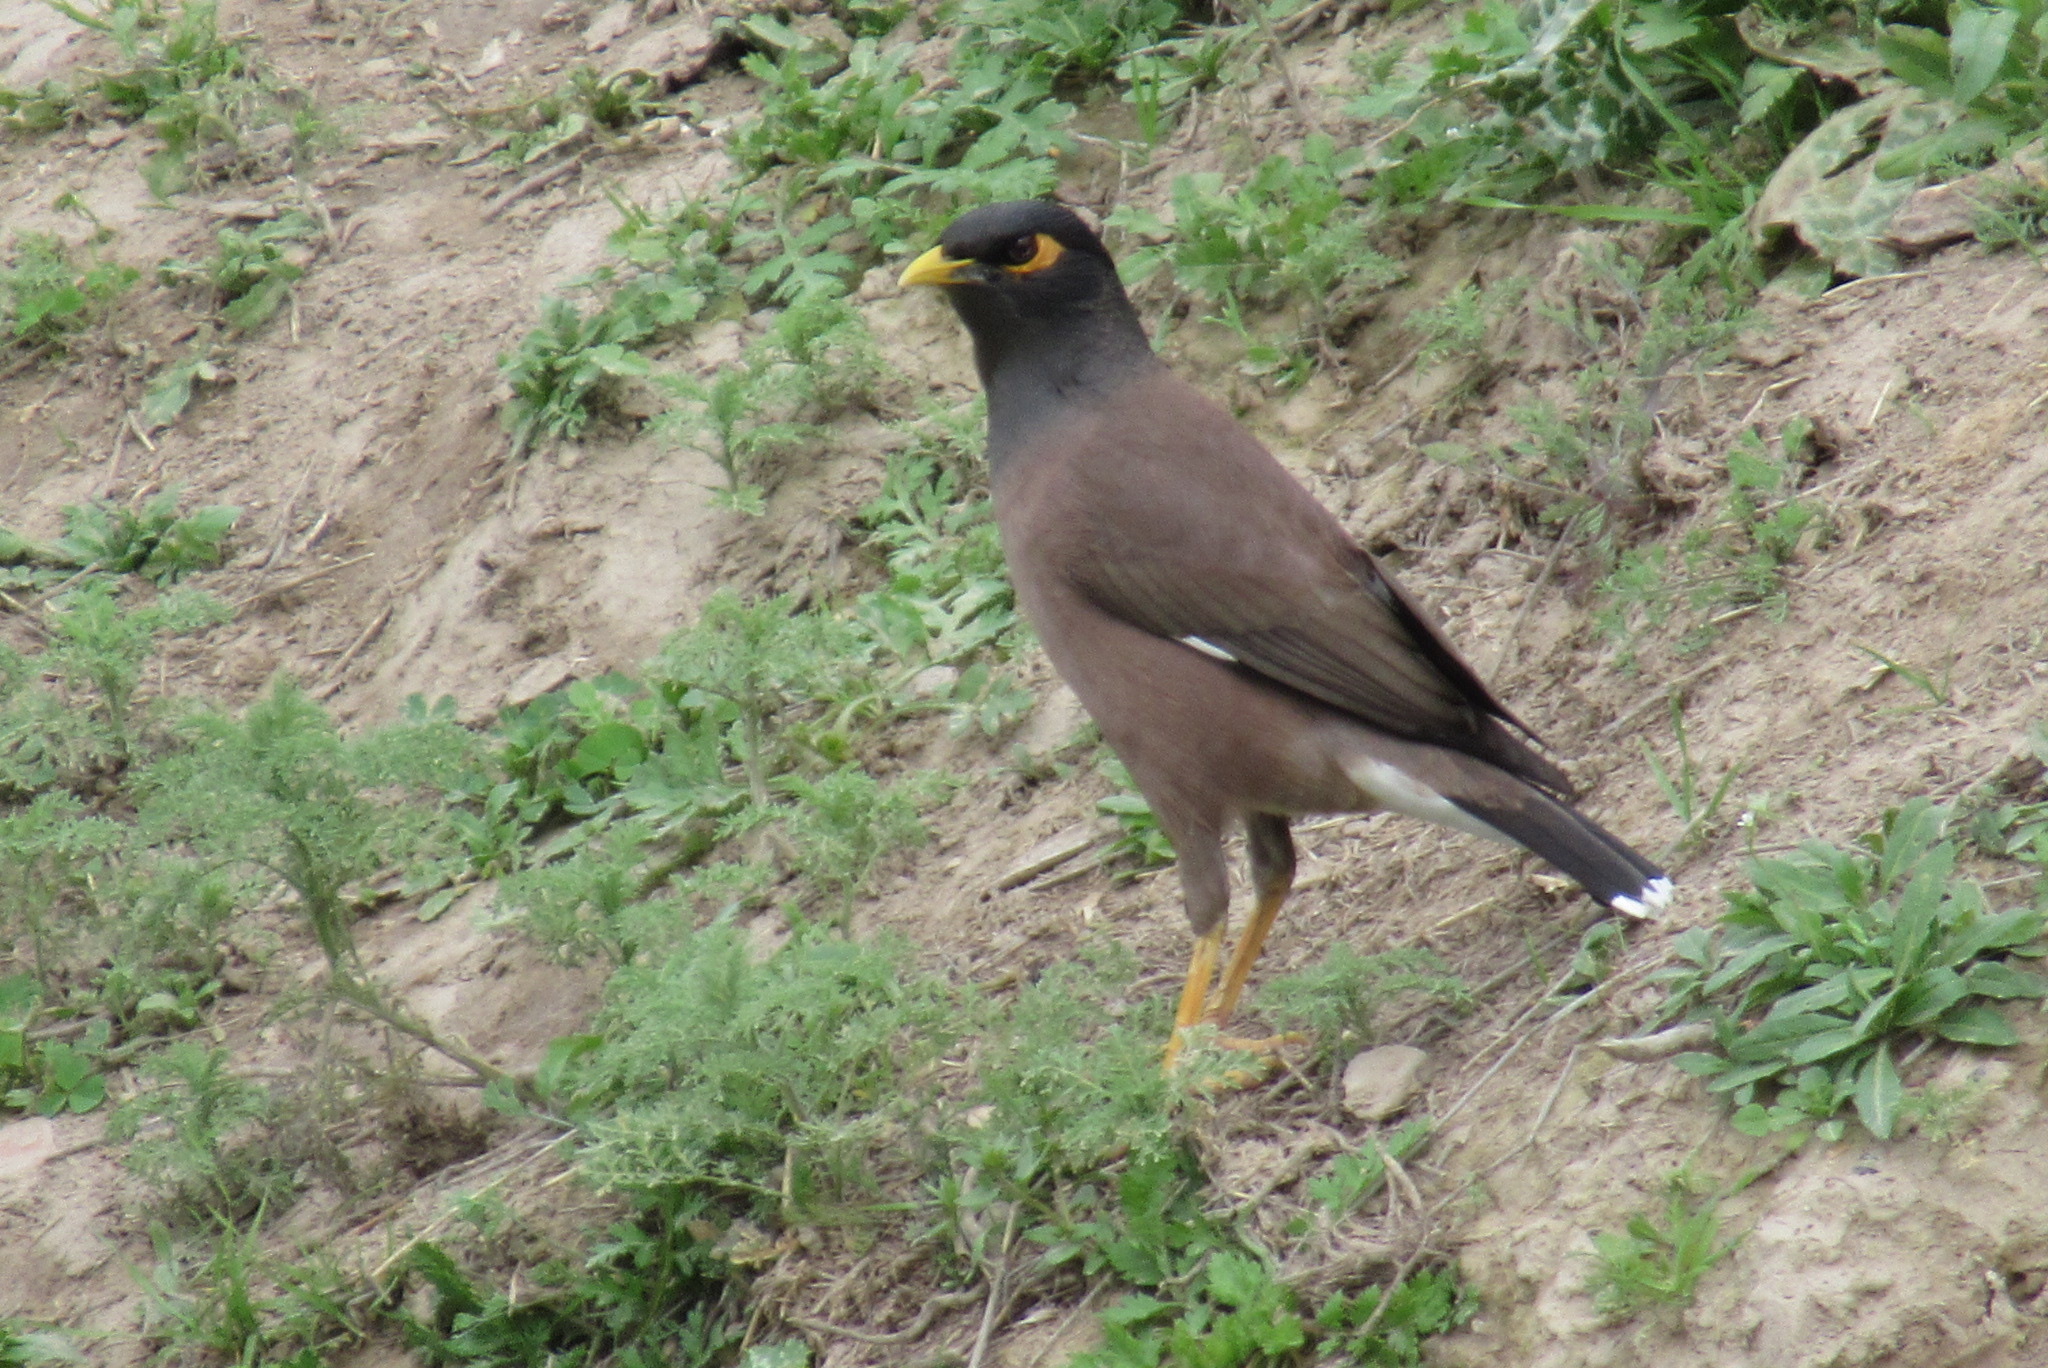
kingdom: Animalia
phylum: Chordata
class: Aves
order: Passeriformes
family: Sturnidae
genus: Acridotheres
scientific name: Acridotheres tristis
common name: Common myna
